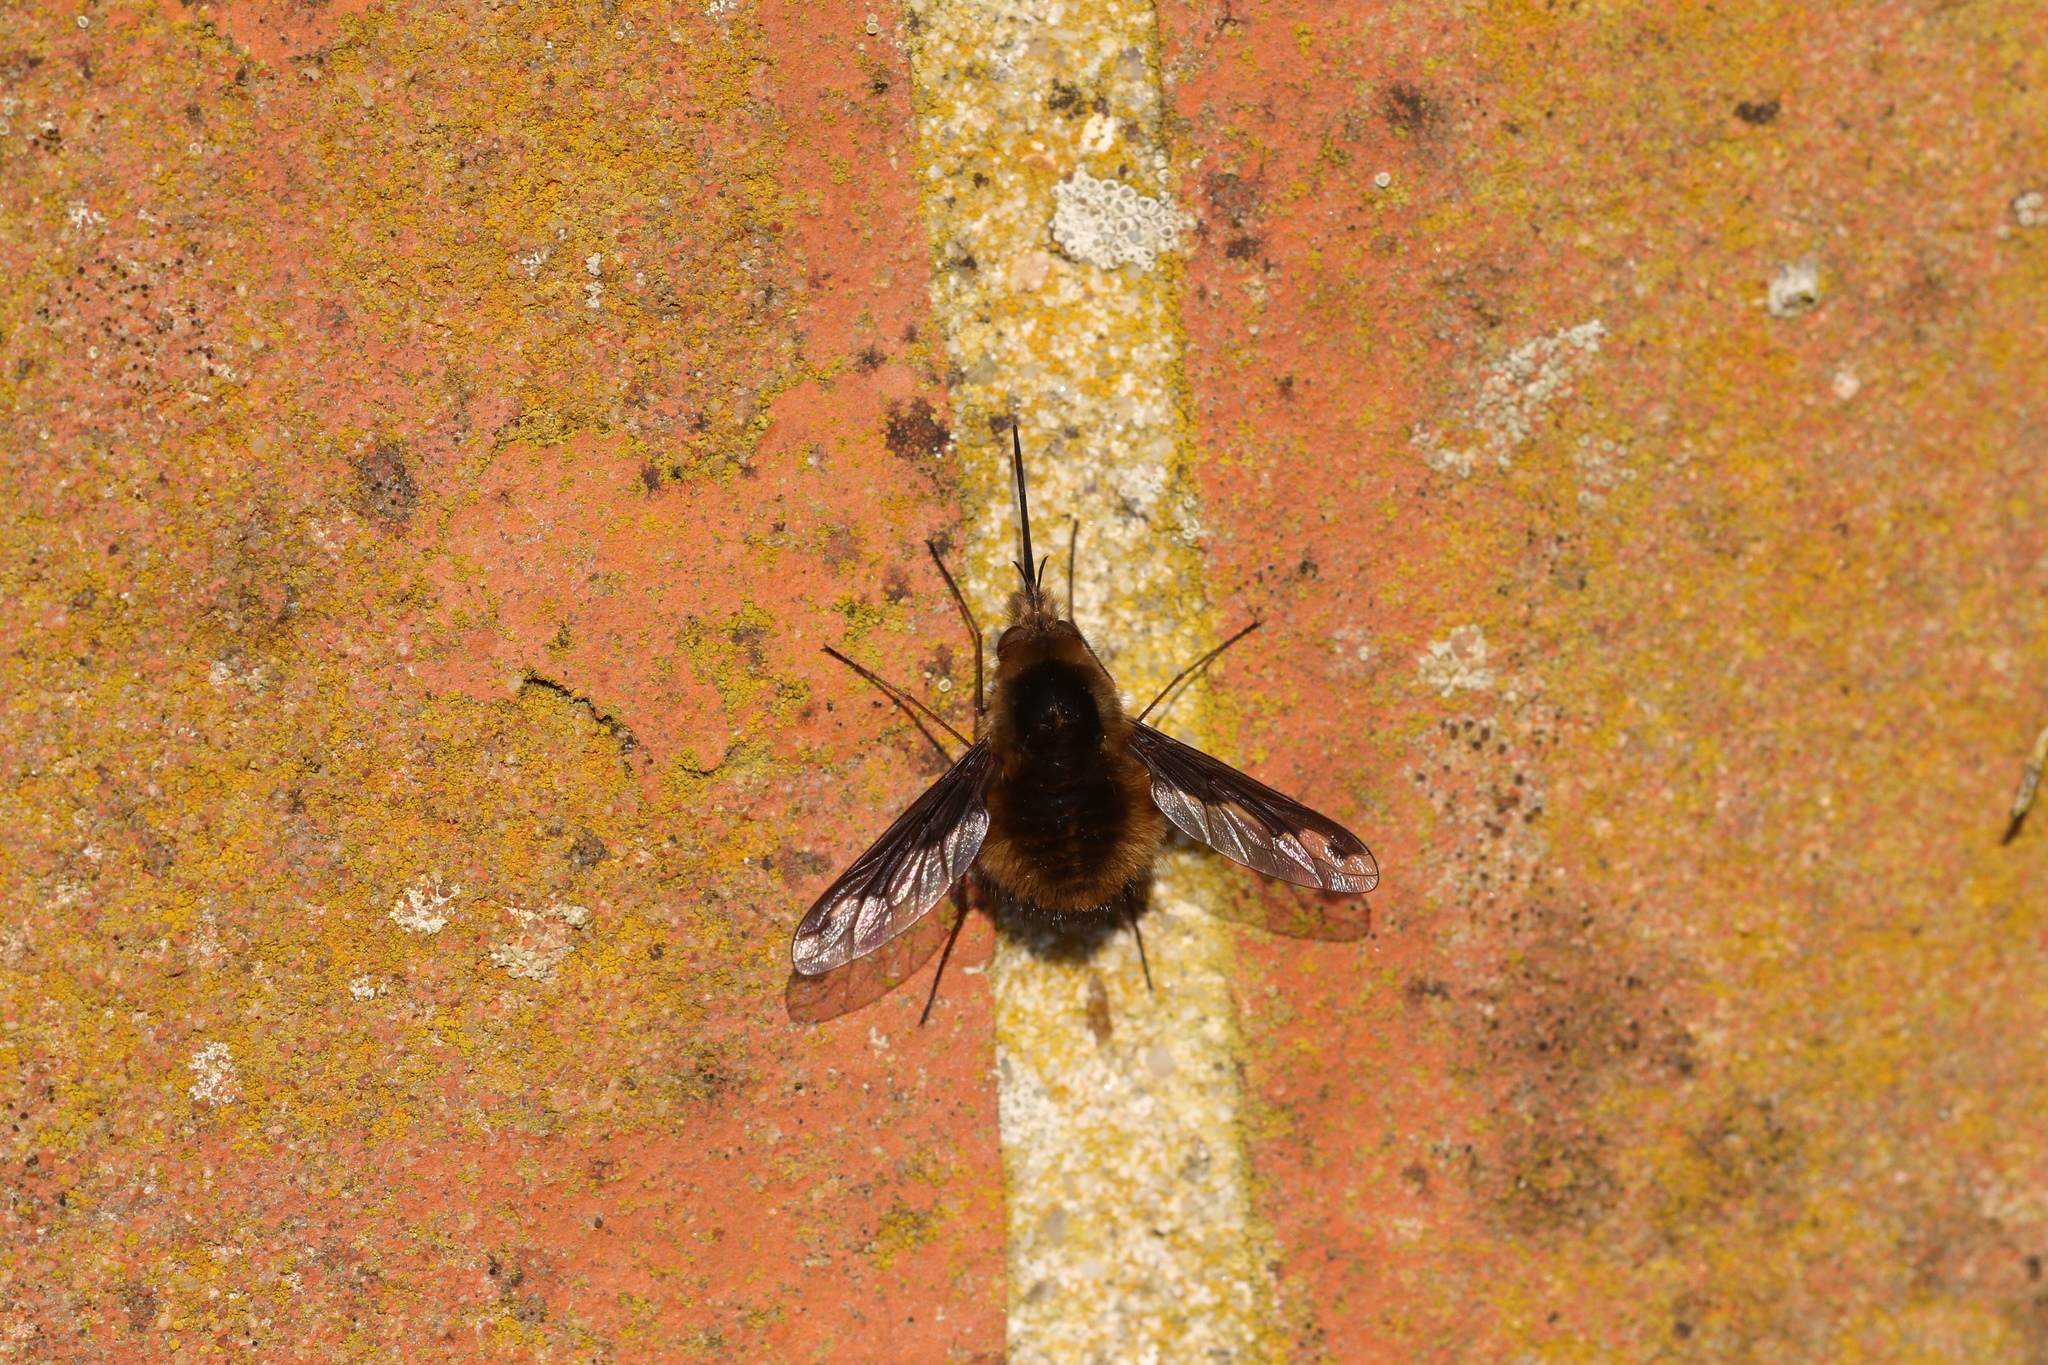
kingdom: Animalia
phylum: Arthropoda
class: Insecta
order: Diptera
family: Bombyliidae
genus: Bombylius
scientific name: Bombylius major
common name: Bee fly
